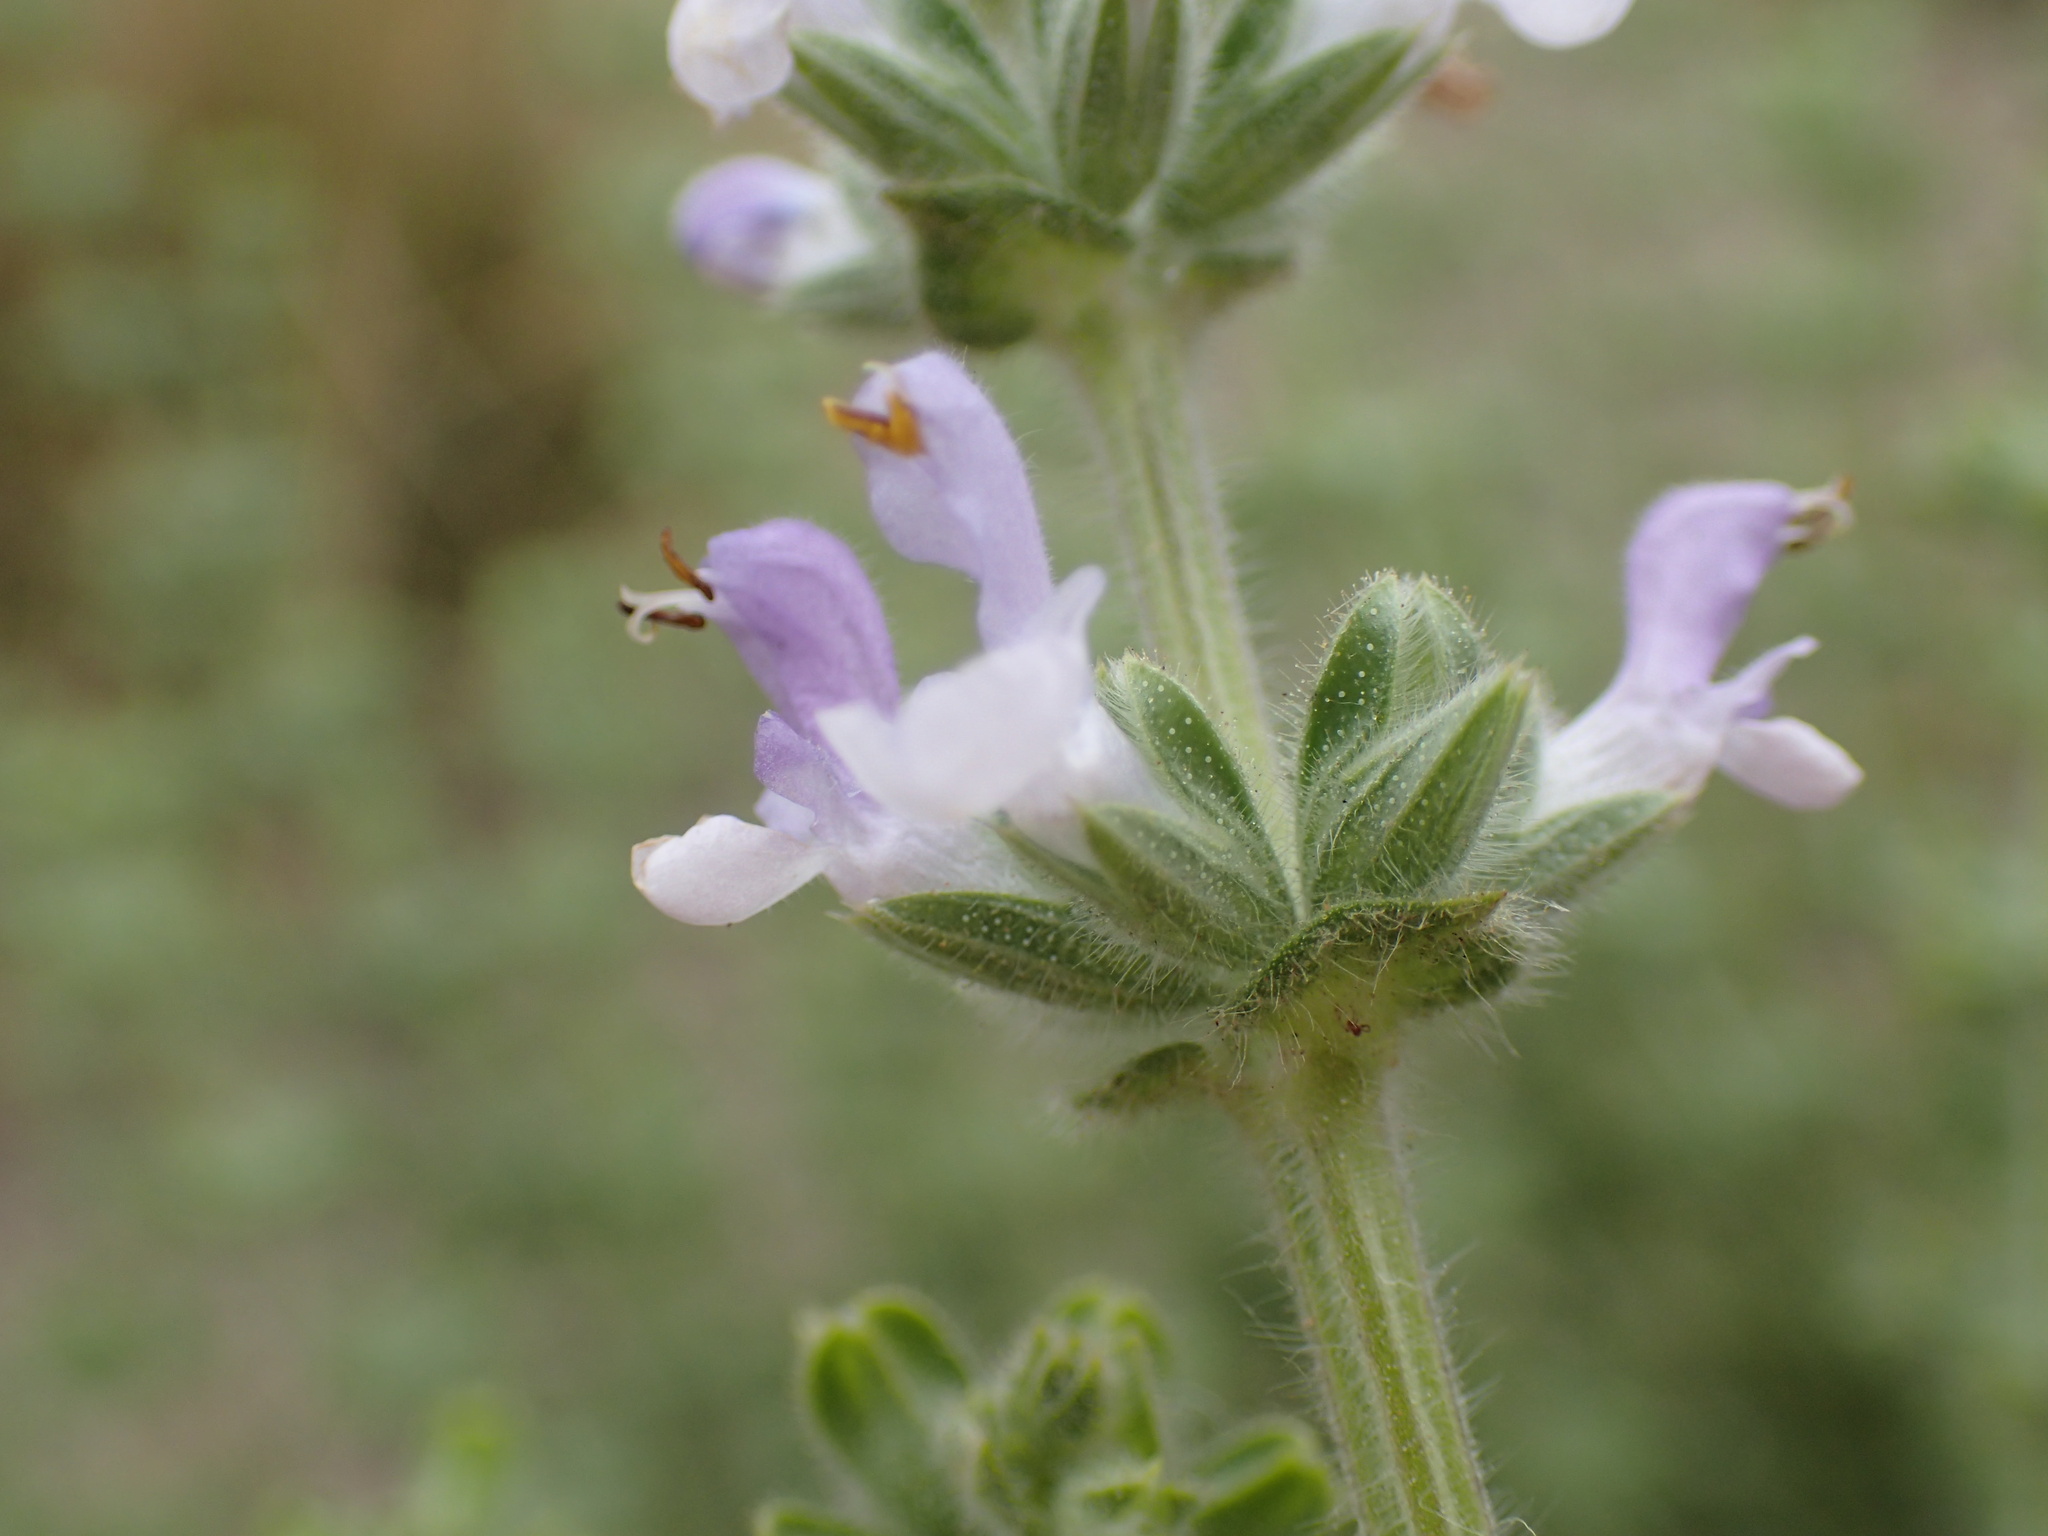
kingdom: Plantae
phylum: Tracheophyta
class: Magnoliopsida
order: Lamiales
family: Lamiaceae
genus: Salvia
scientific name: Salvia verbenaca
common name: Wild clary
